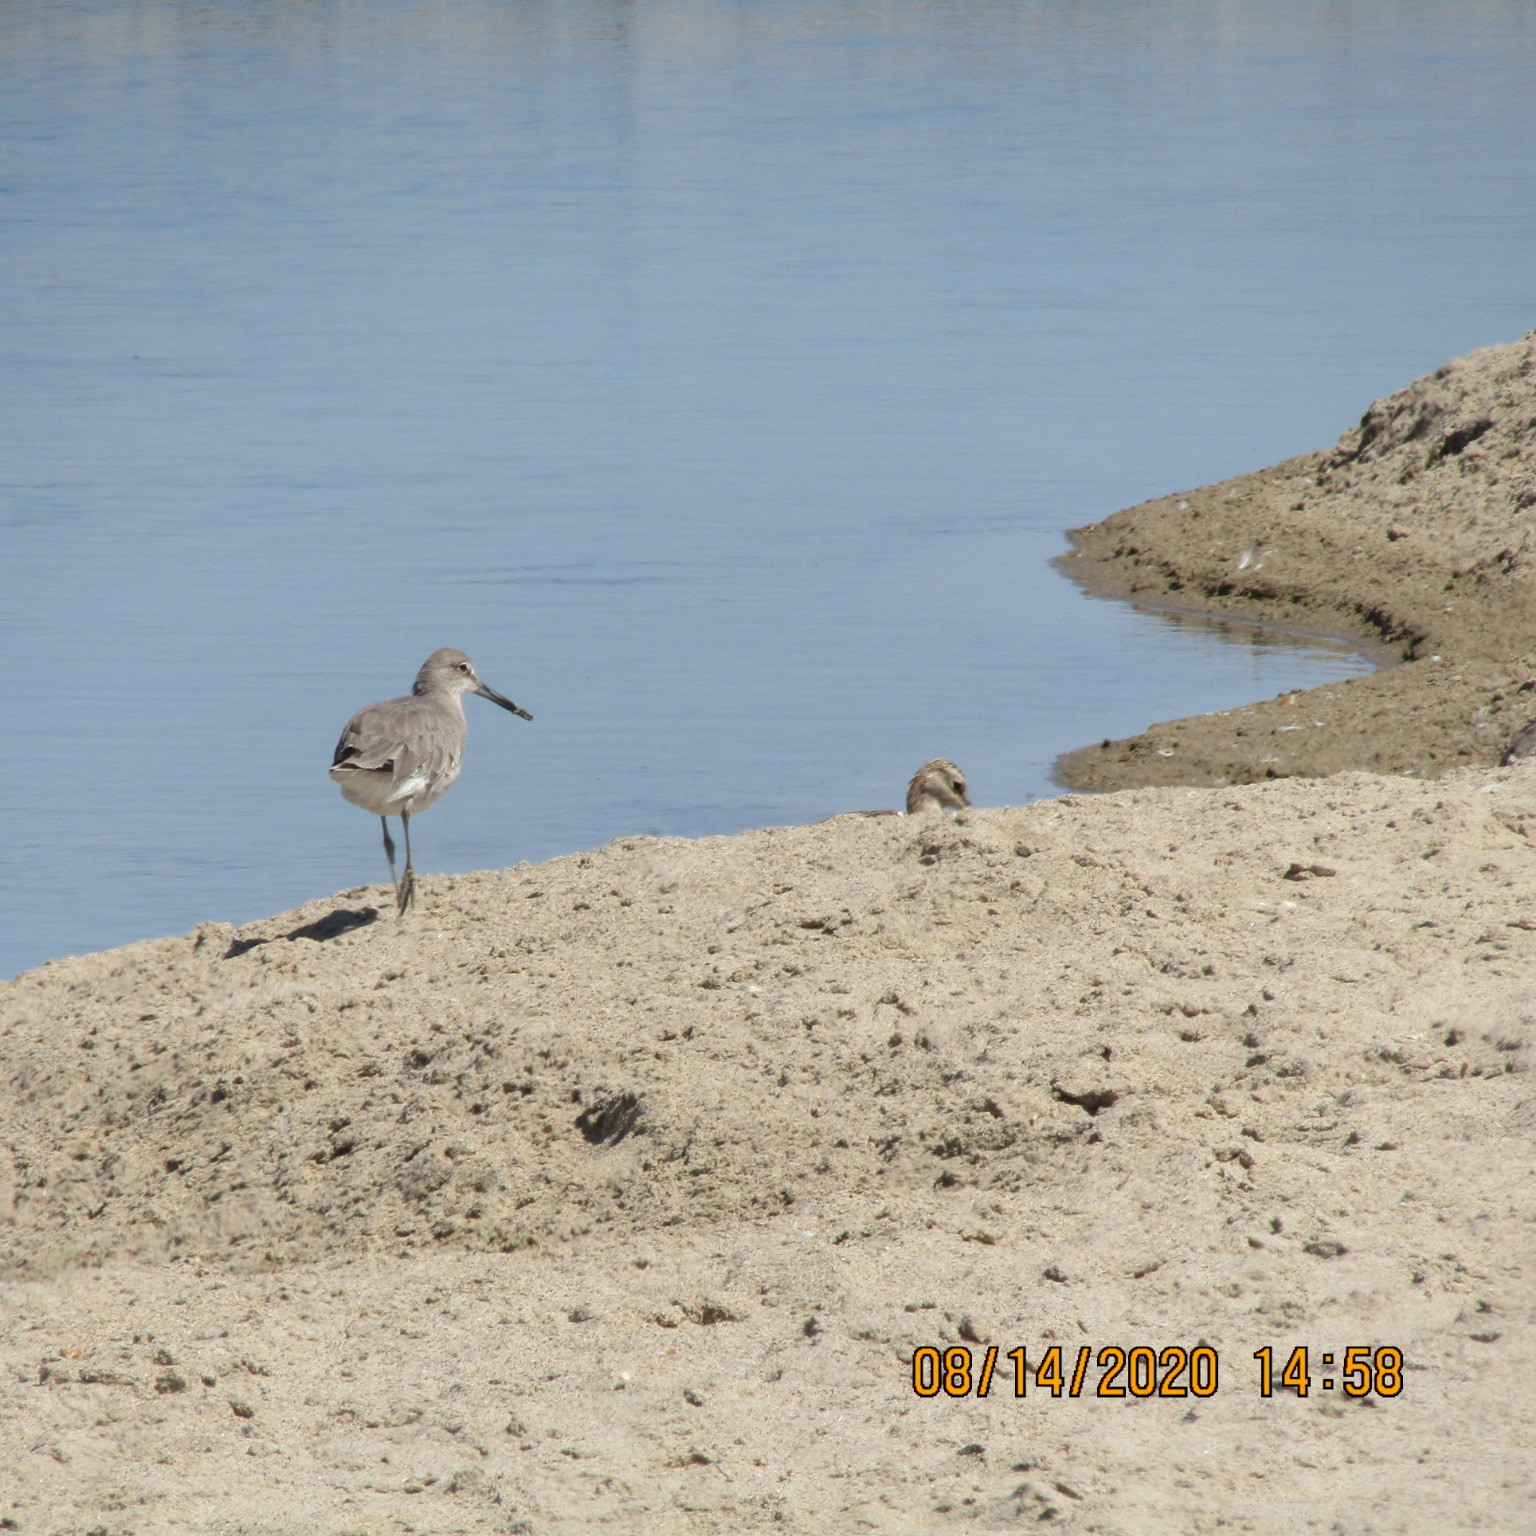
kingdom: Animalia
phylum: Chordata
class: Aves
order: Charadriiformes
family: Scolopacidae
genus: Tringa
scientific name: Tringa semipalmata
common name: Willet
